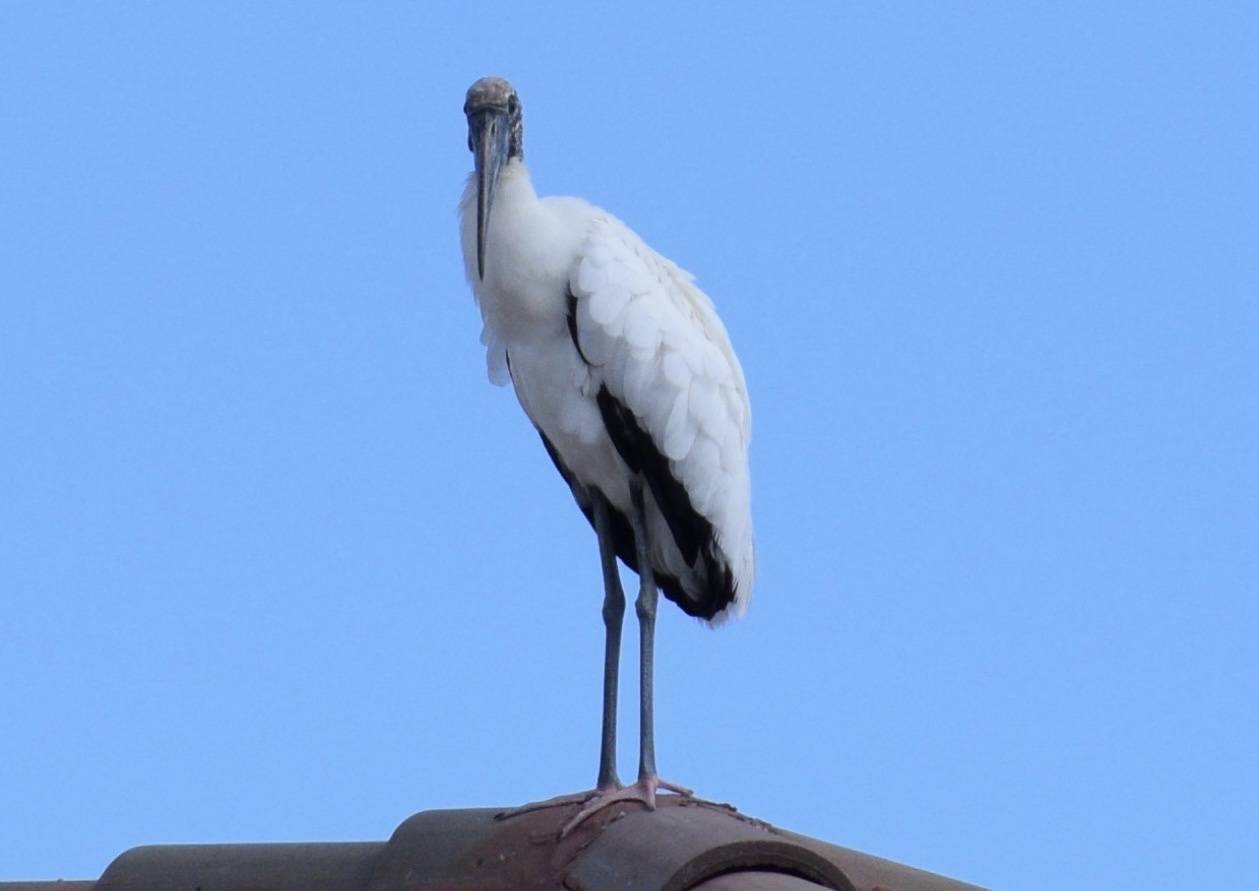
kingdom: Animalia
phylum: Chordata
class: Aves
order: Ciconiiformes
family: Ciconiidae
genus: Mycteria
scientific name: Mycteria americana
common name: Wood stork
